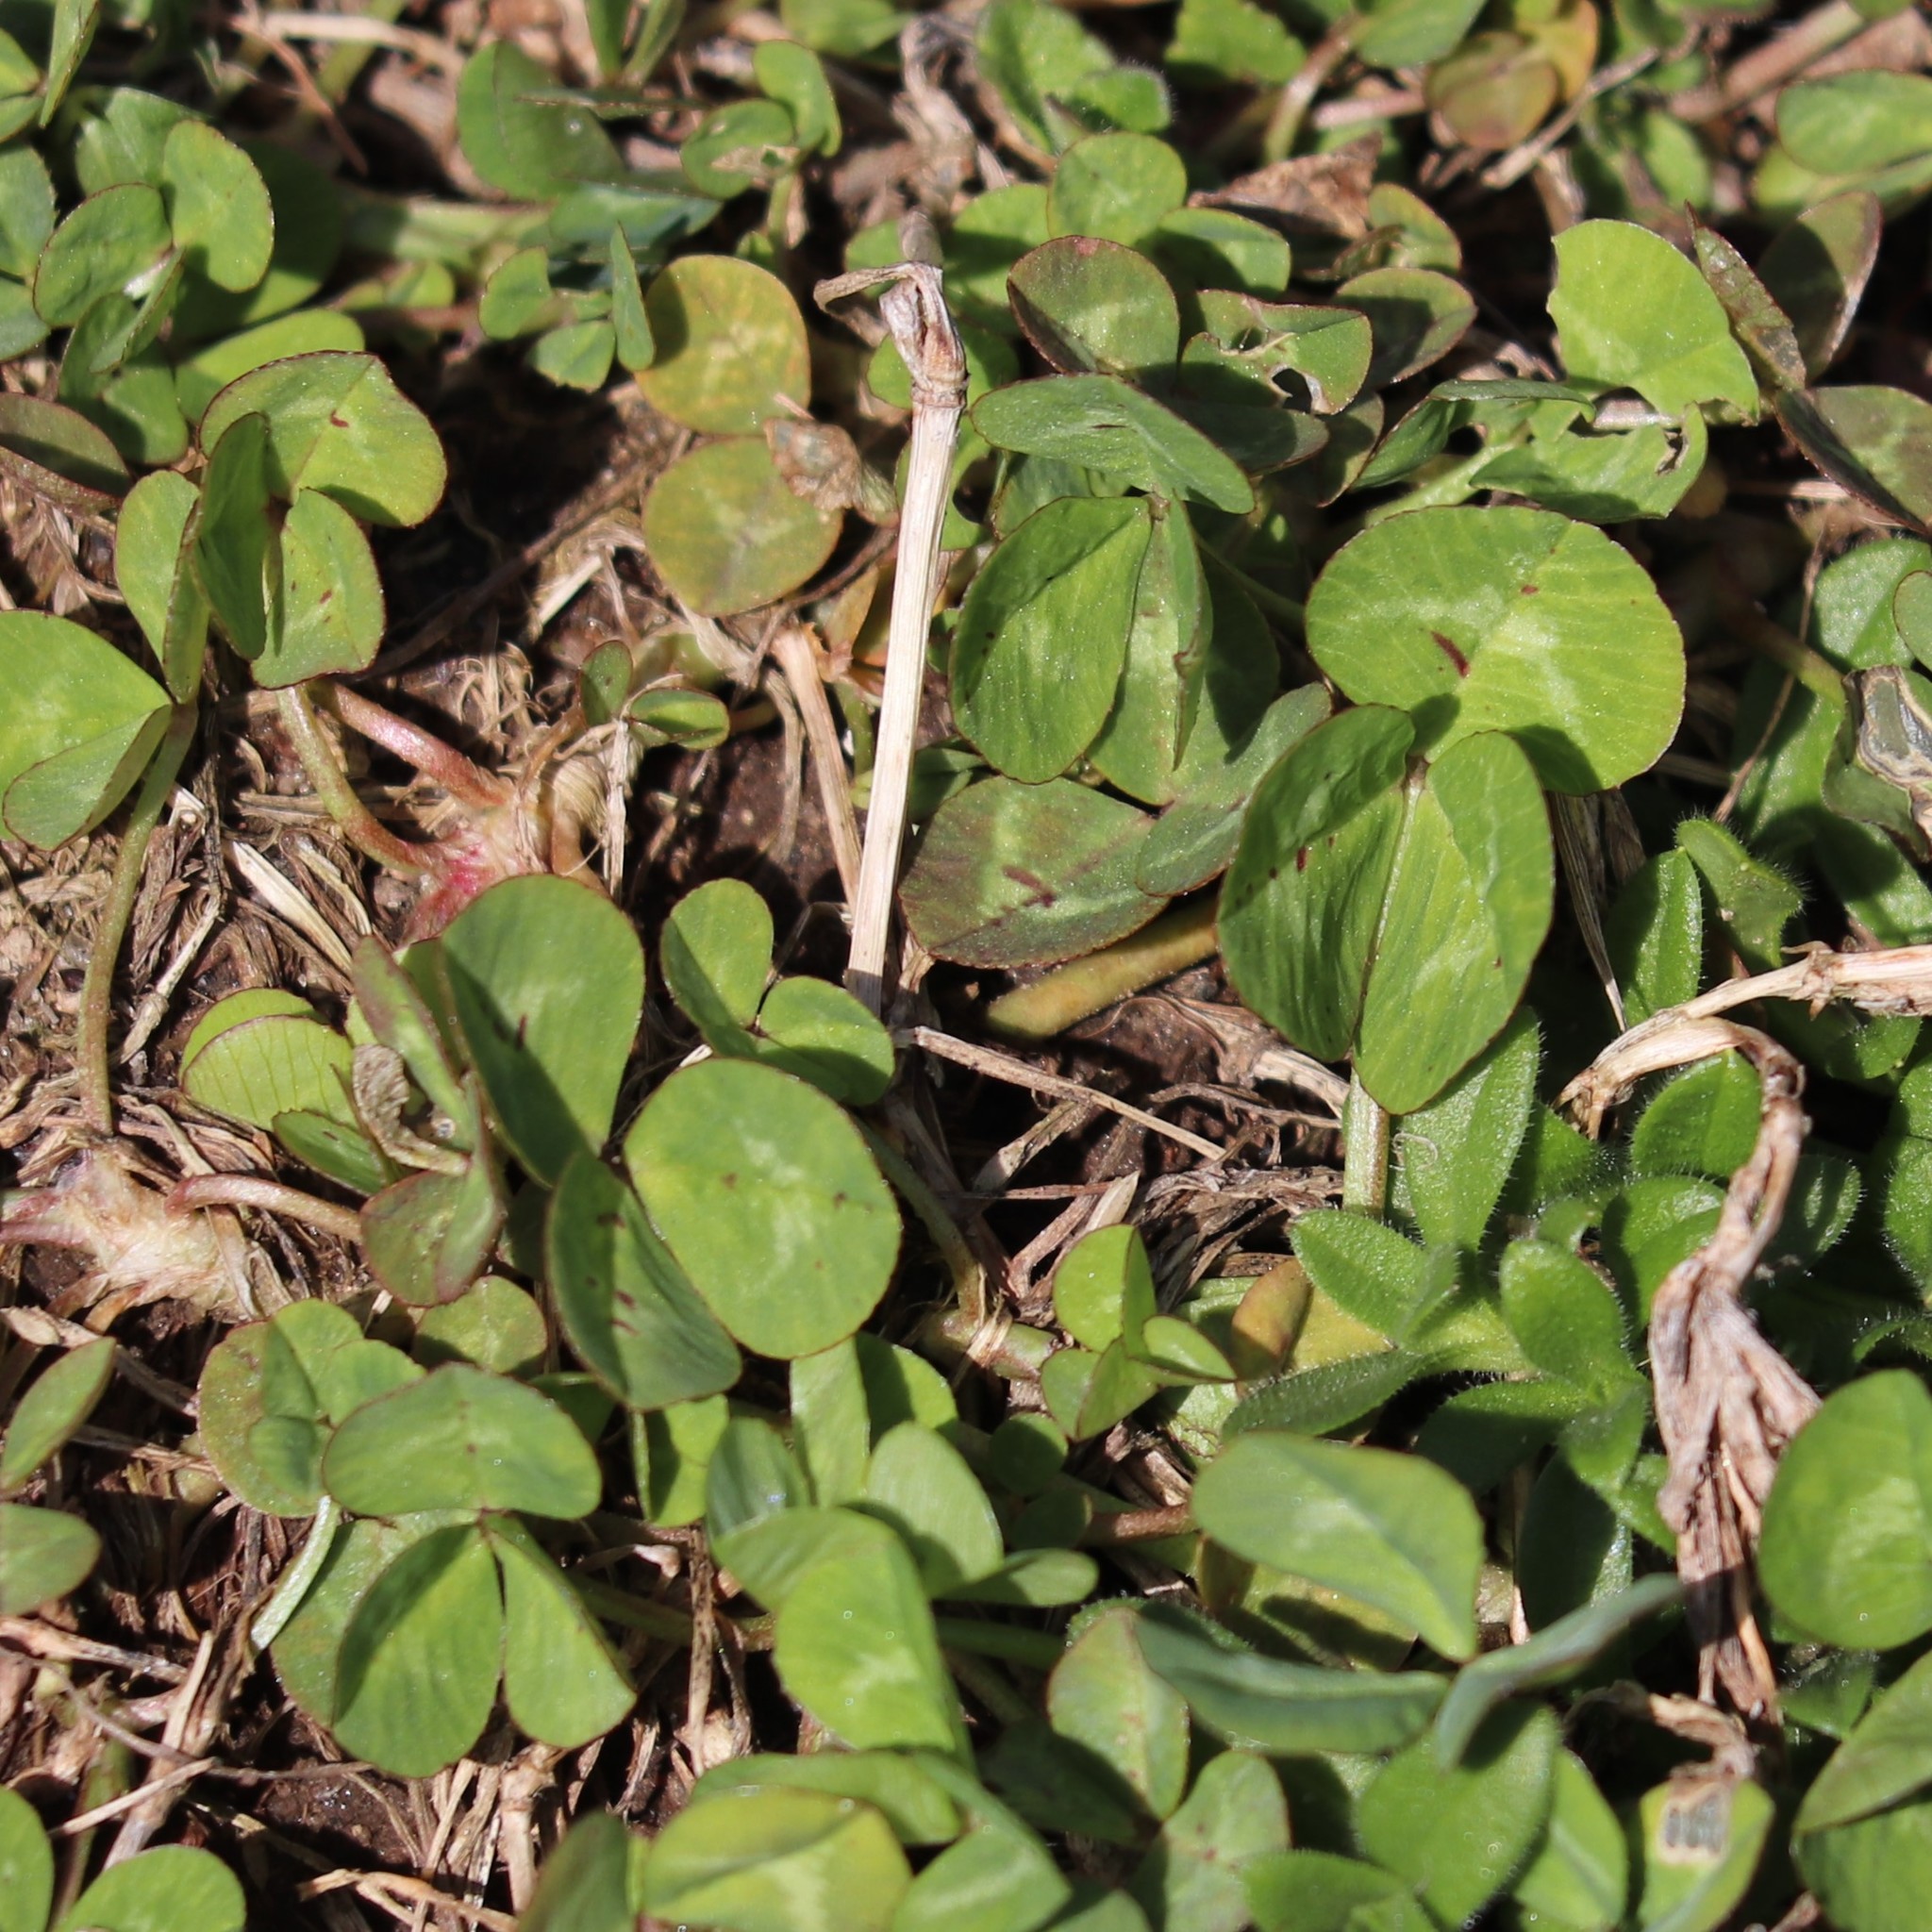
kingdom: Plantae
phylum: Tracheophyta
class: Magnoliopsida
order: Fabales
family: Fabaceae
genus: Trifolium
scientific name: Trifolium repens
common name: White clover
